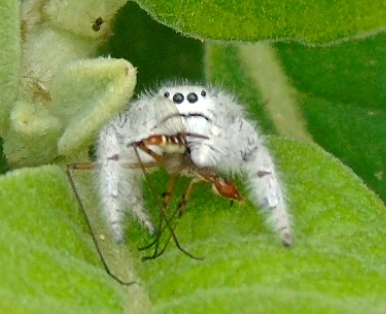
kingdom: Animalia
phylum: Arthropoda
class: Arachnida
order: Araneae
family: Salticidae
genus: Paraphidippus
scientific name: Paraphidippus fartilis
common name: Jumping spiders
